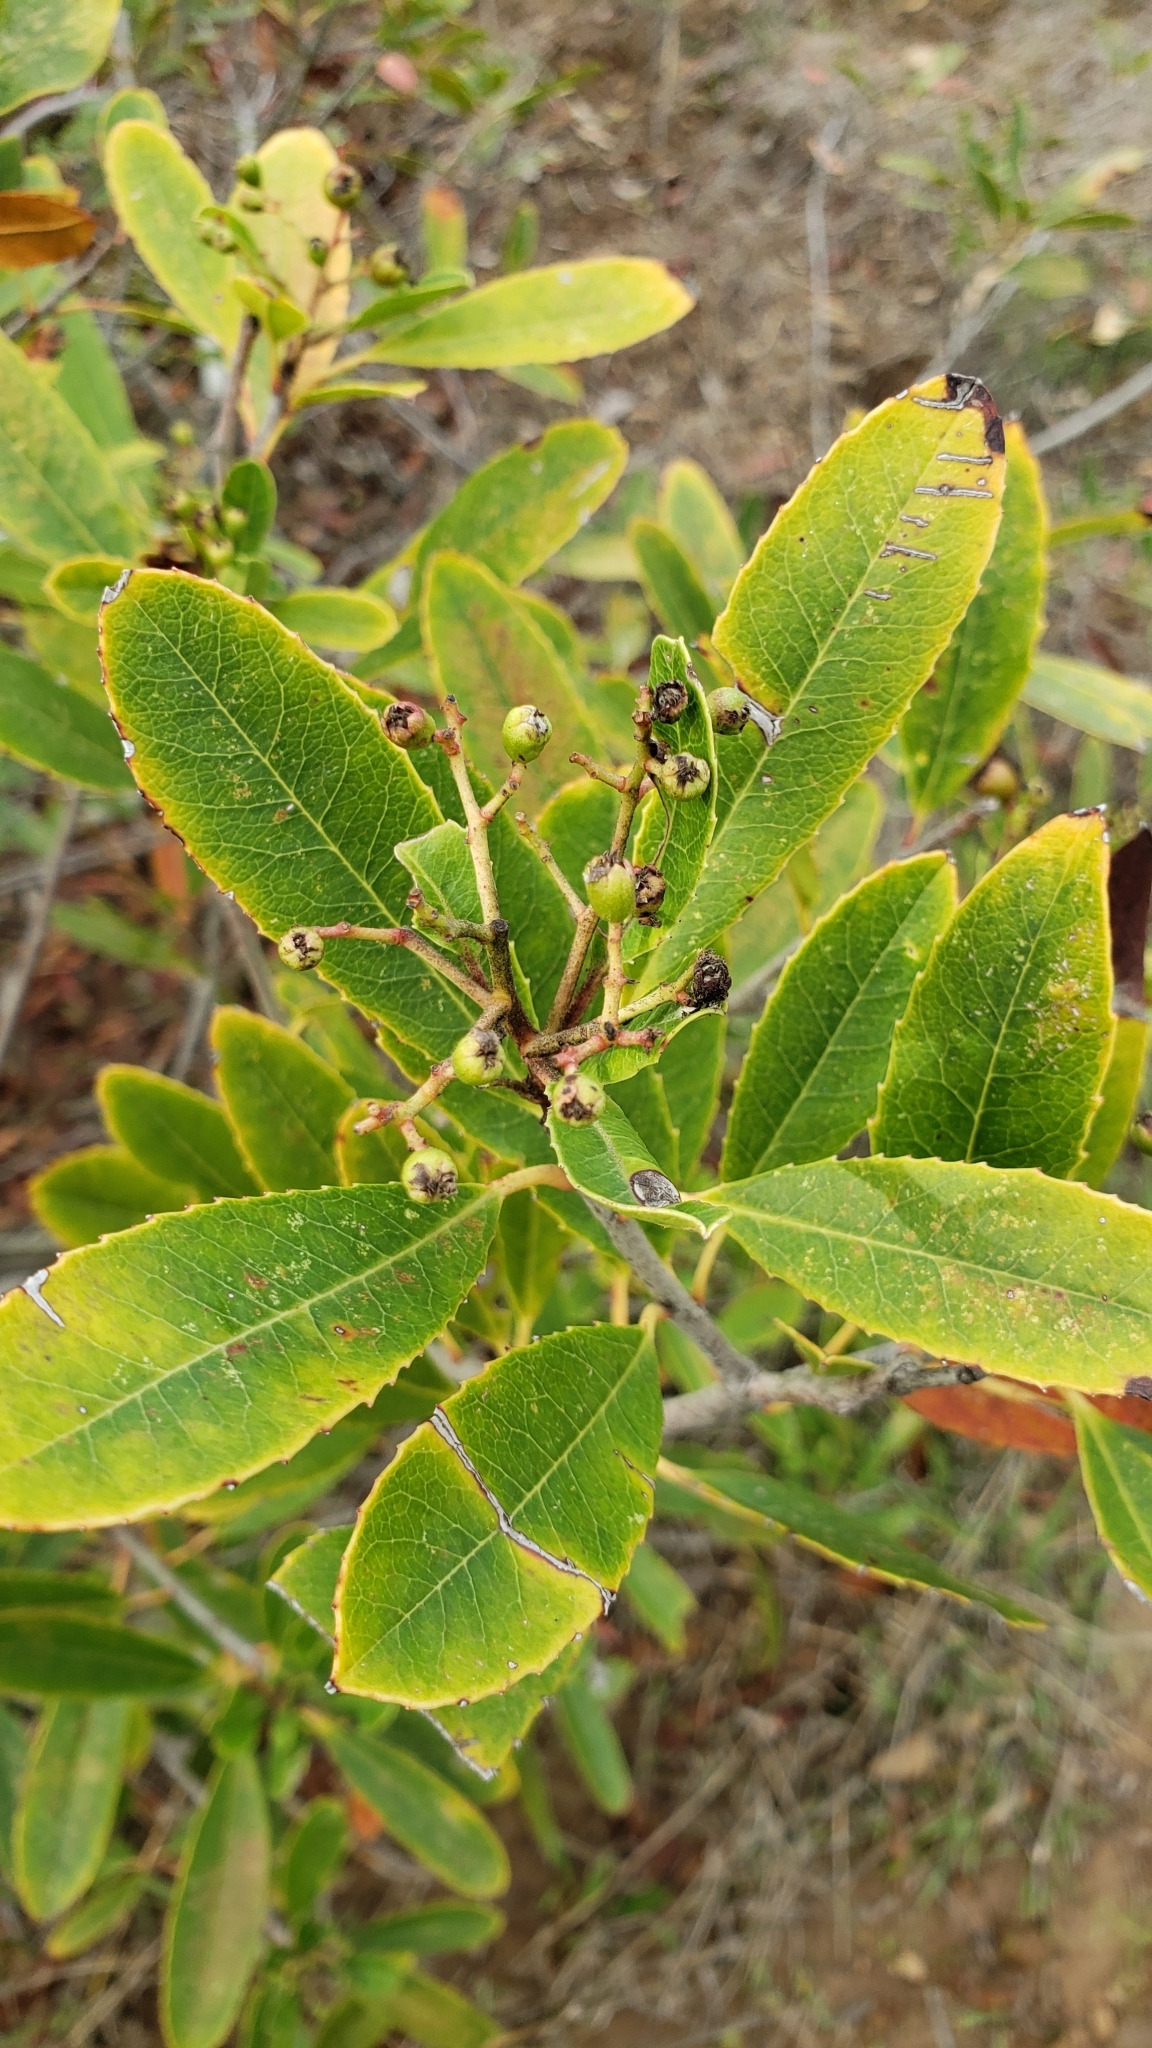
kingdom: Plantae
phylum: Tracheophyta
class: Magnoliopsida
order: Rosales
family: Rosaceae
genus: Heteromeles
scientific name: Heteromeles arbutifolia
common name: California-holly
